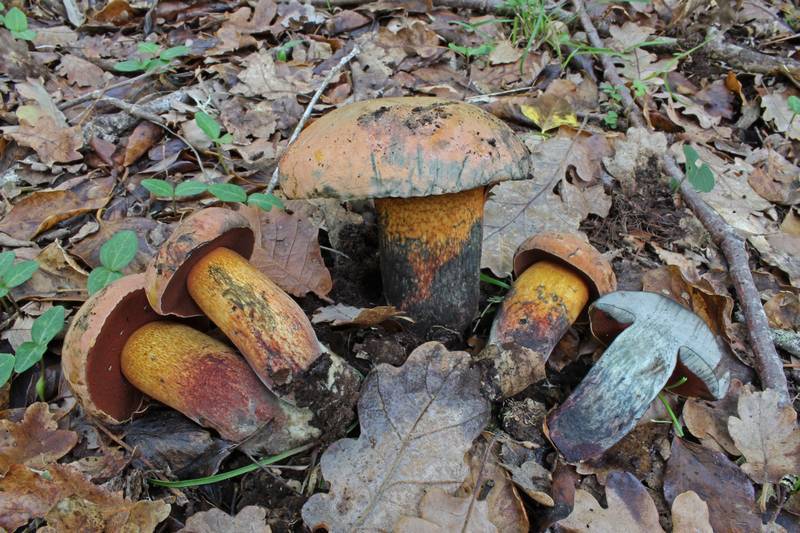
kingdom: Fungi
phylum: Basidiomycota
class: Agaricomycetes
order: Boletales
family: Boletaceae
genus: Suillellus
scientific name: Suillellus mendax
